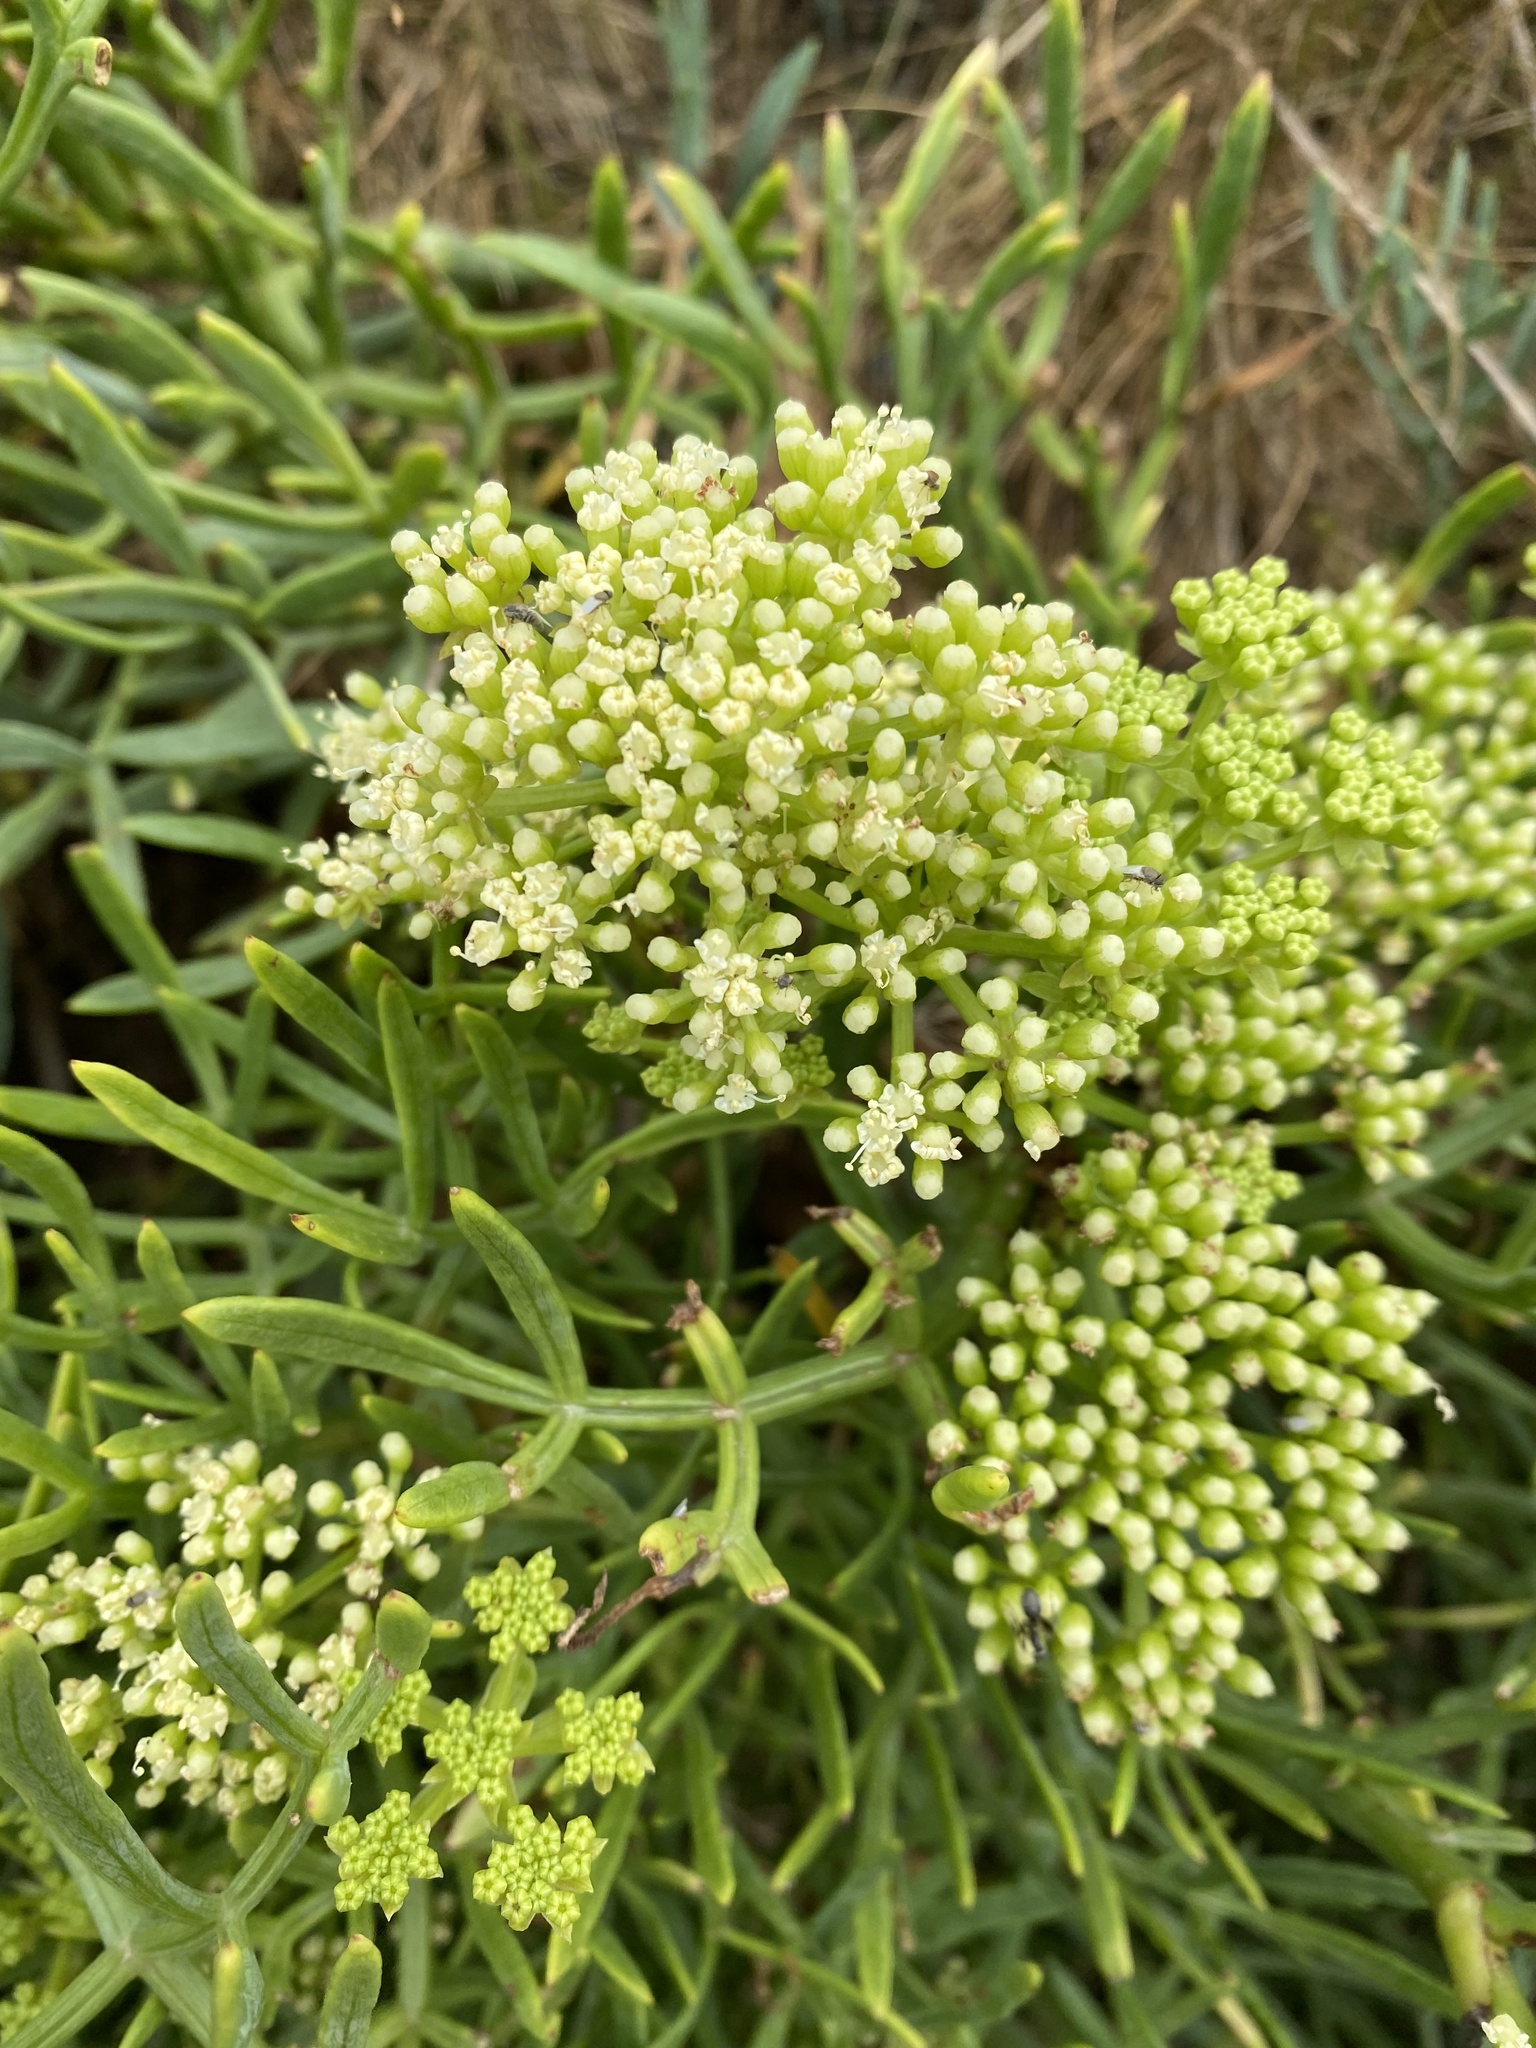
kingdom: Plantae
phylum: Tracheophyta
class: Magnoliopsida
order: Apiales
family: Apiaceae
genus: Crithmum
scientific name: Crithmum maritimum
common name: Rock samphire
